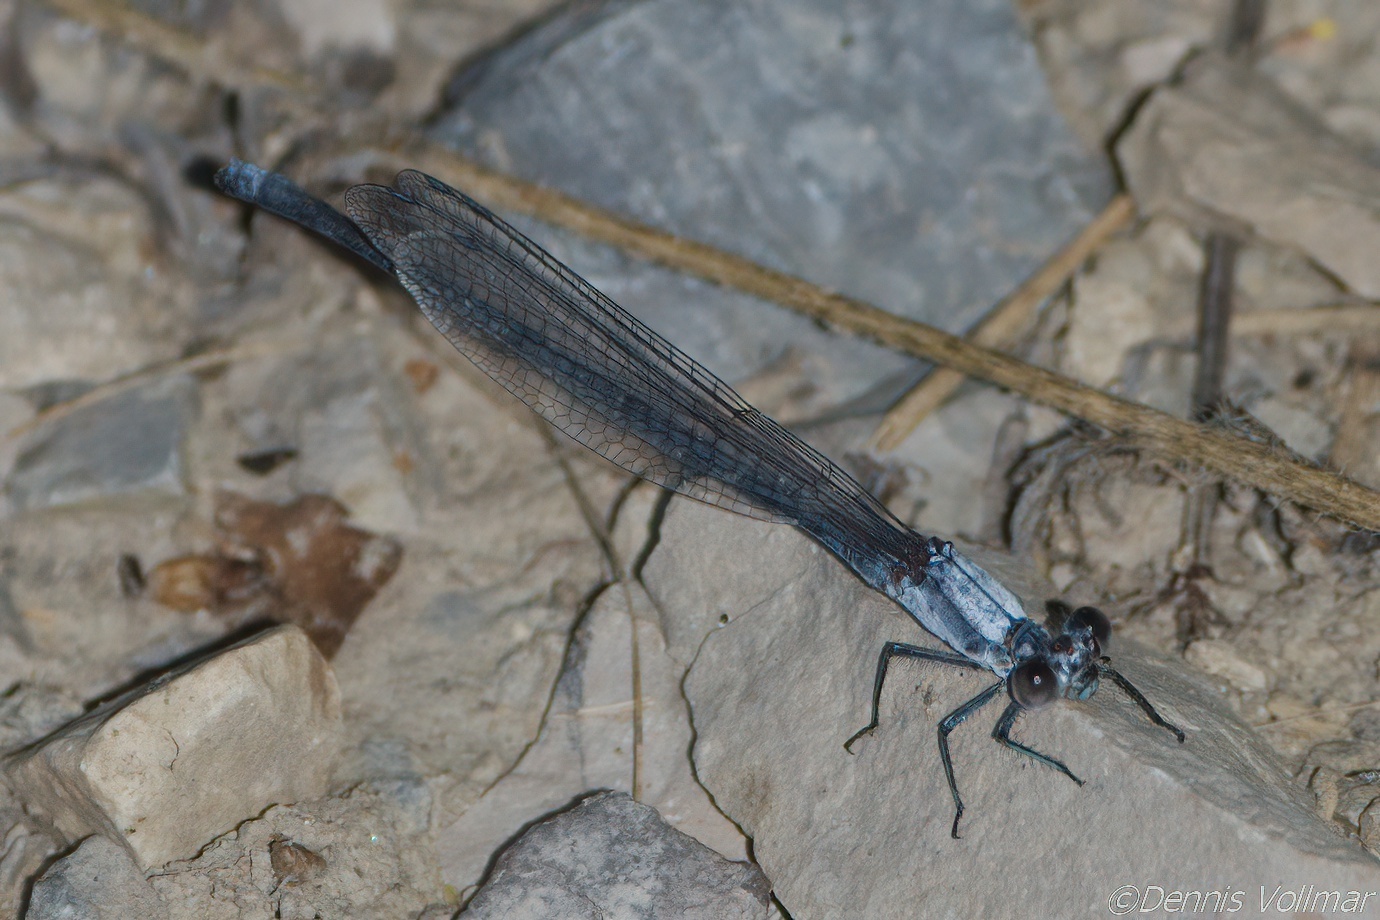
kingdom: Animalia
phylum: Arthropoda
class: Insecta
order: Odonata
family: Coenagrionidae
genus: Argia
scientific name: Argia moesta
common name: Powdered dancer
